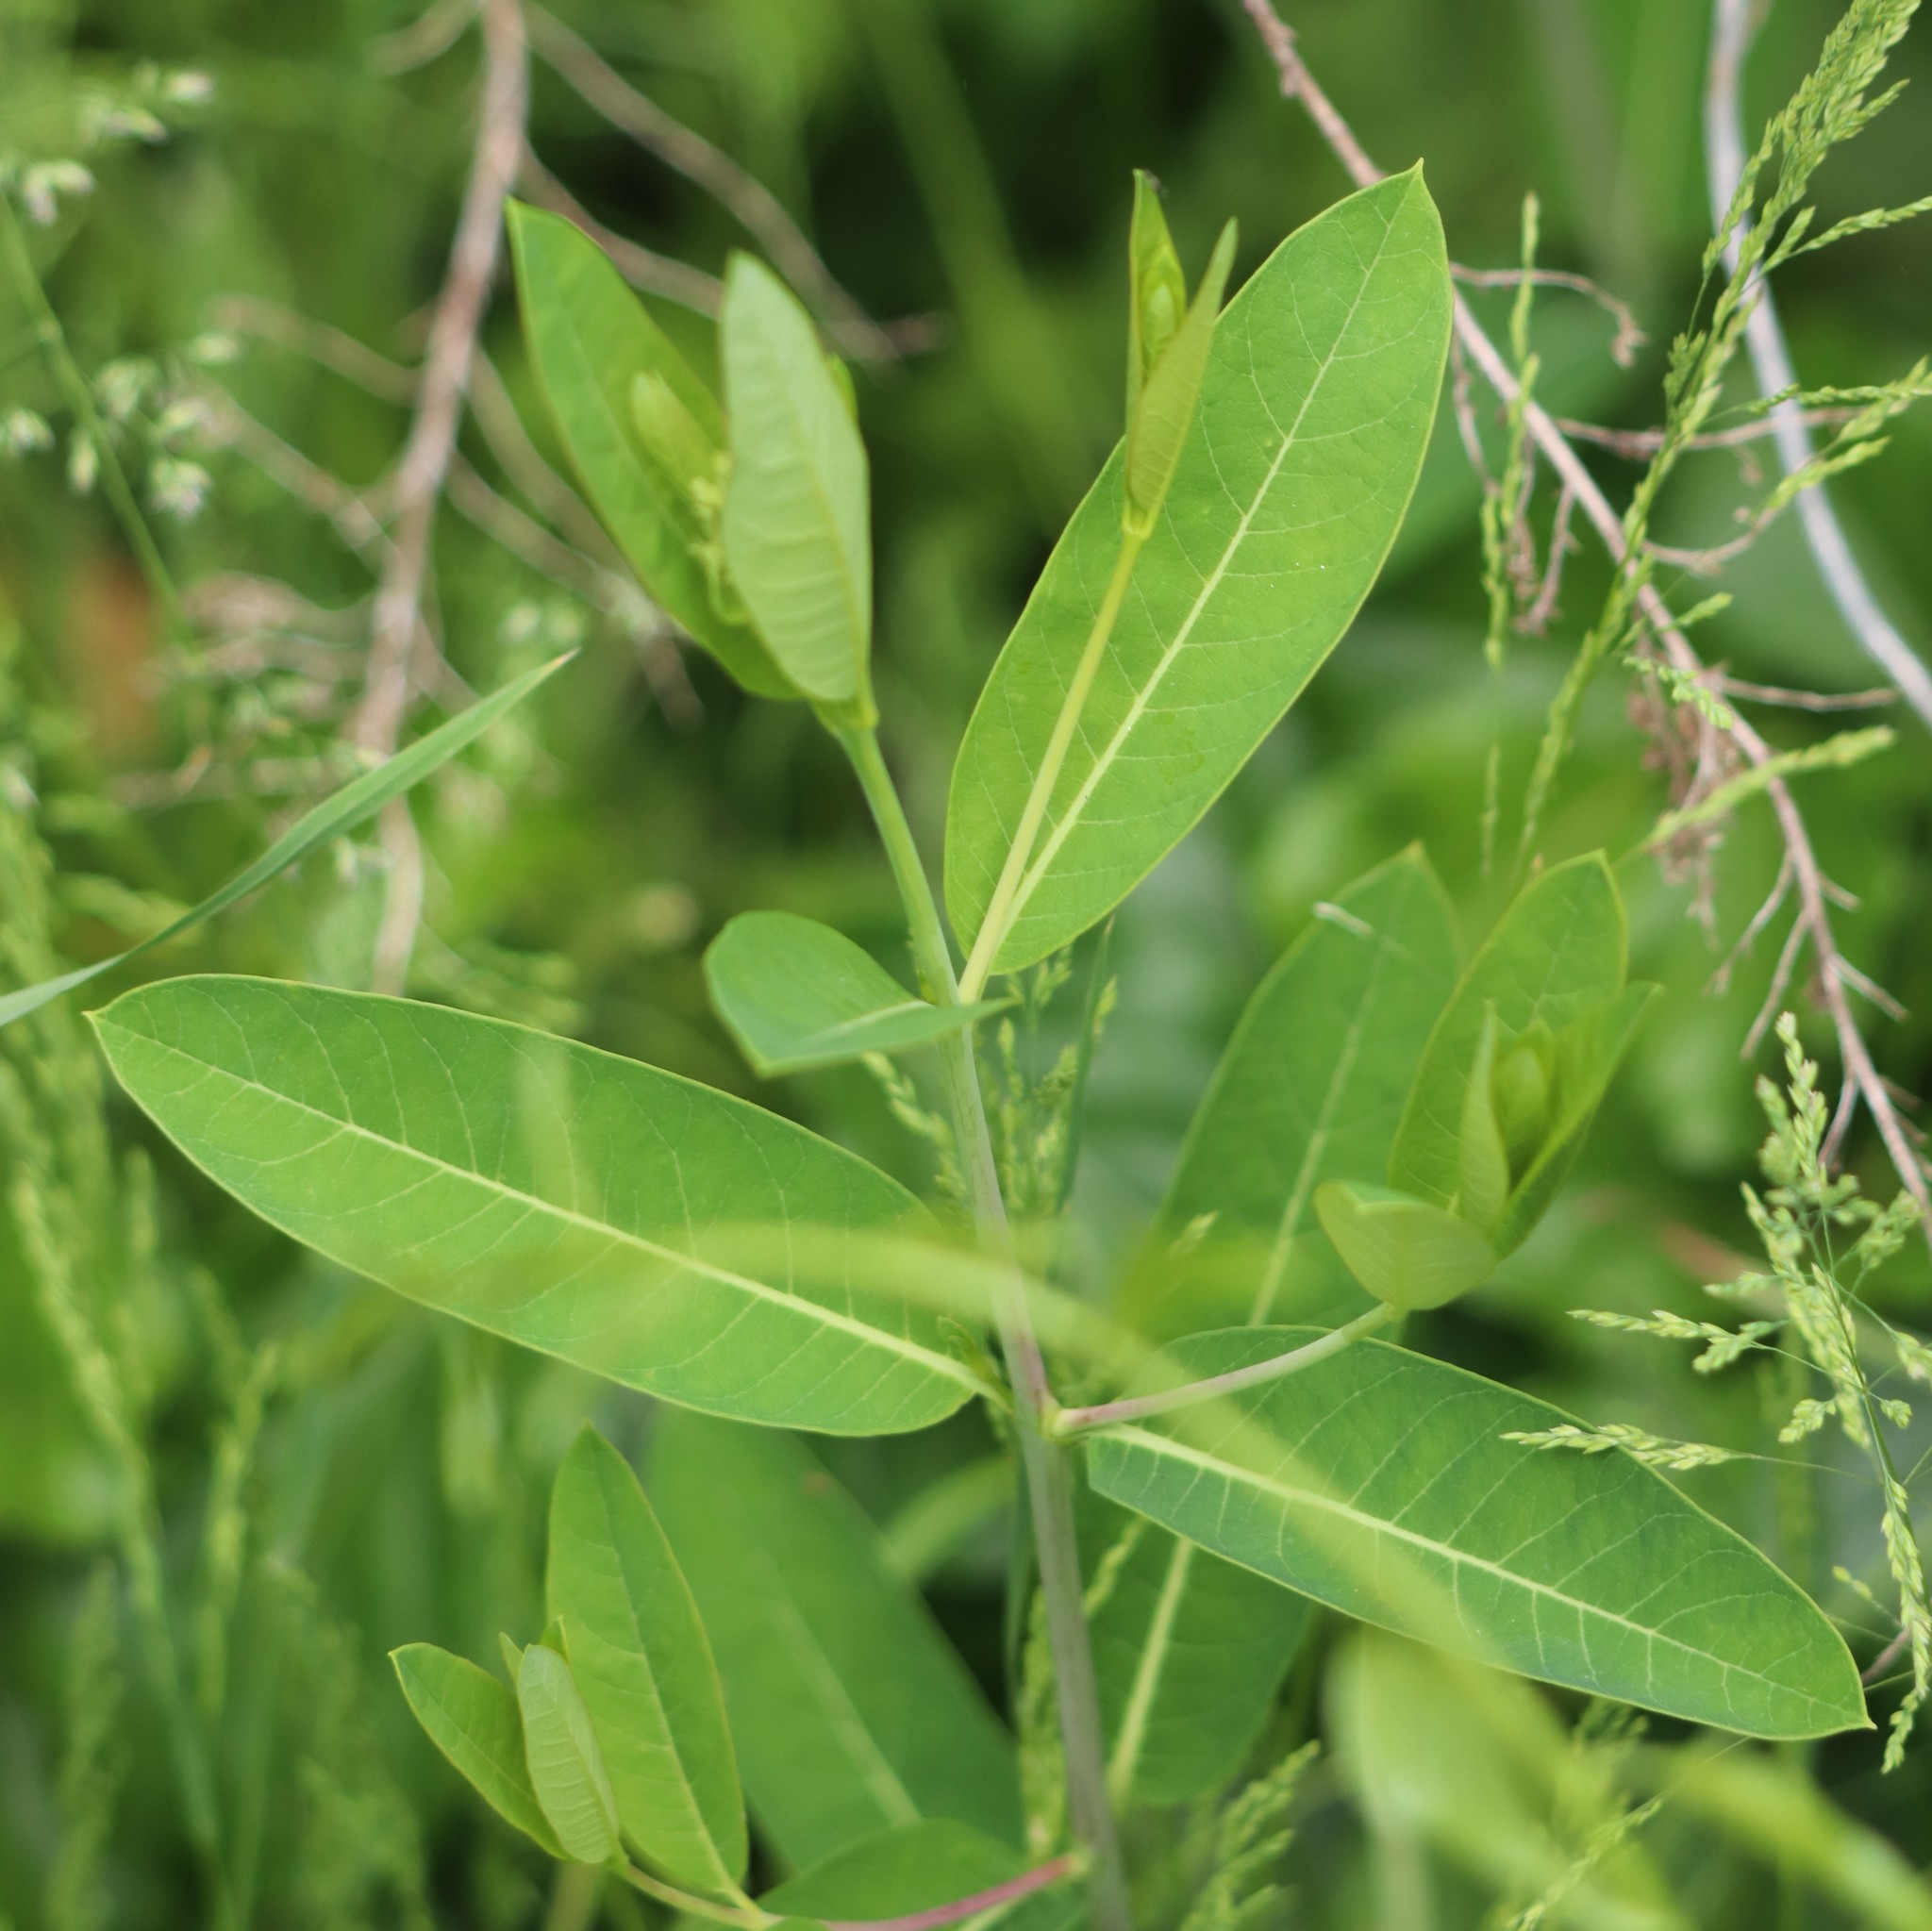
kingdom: Plantae
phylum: Tracheophyta
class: Magnoliopsida
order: Gentianales
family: Apocynaceae
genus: Apocynum
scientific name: Apocynum cannabinum
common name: Hemp dogbane
